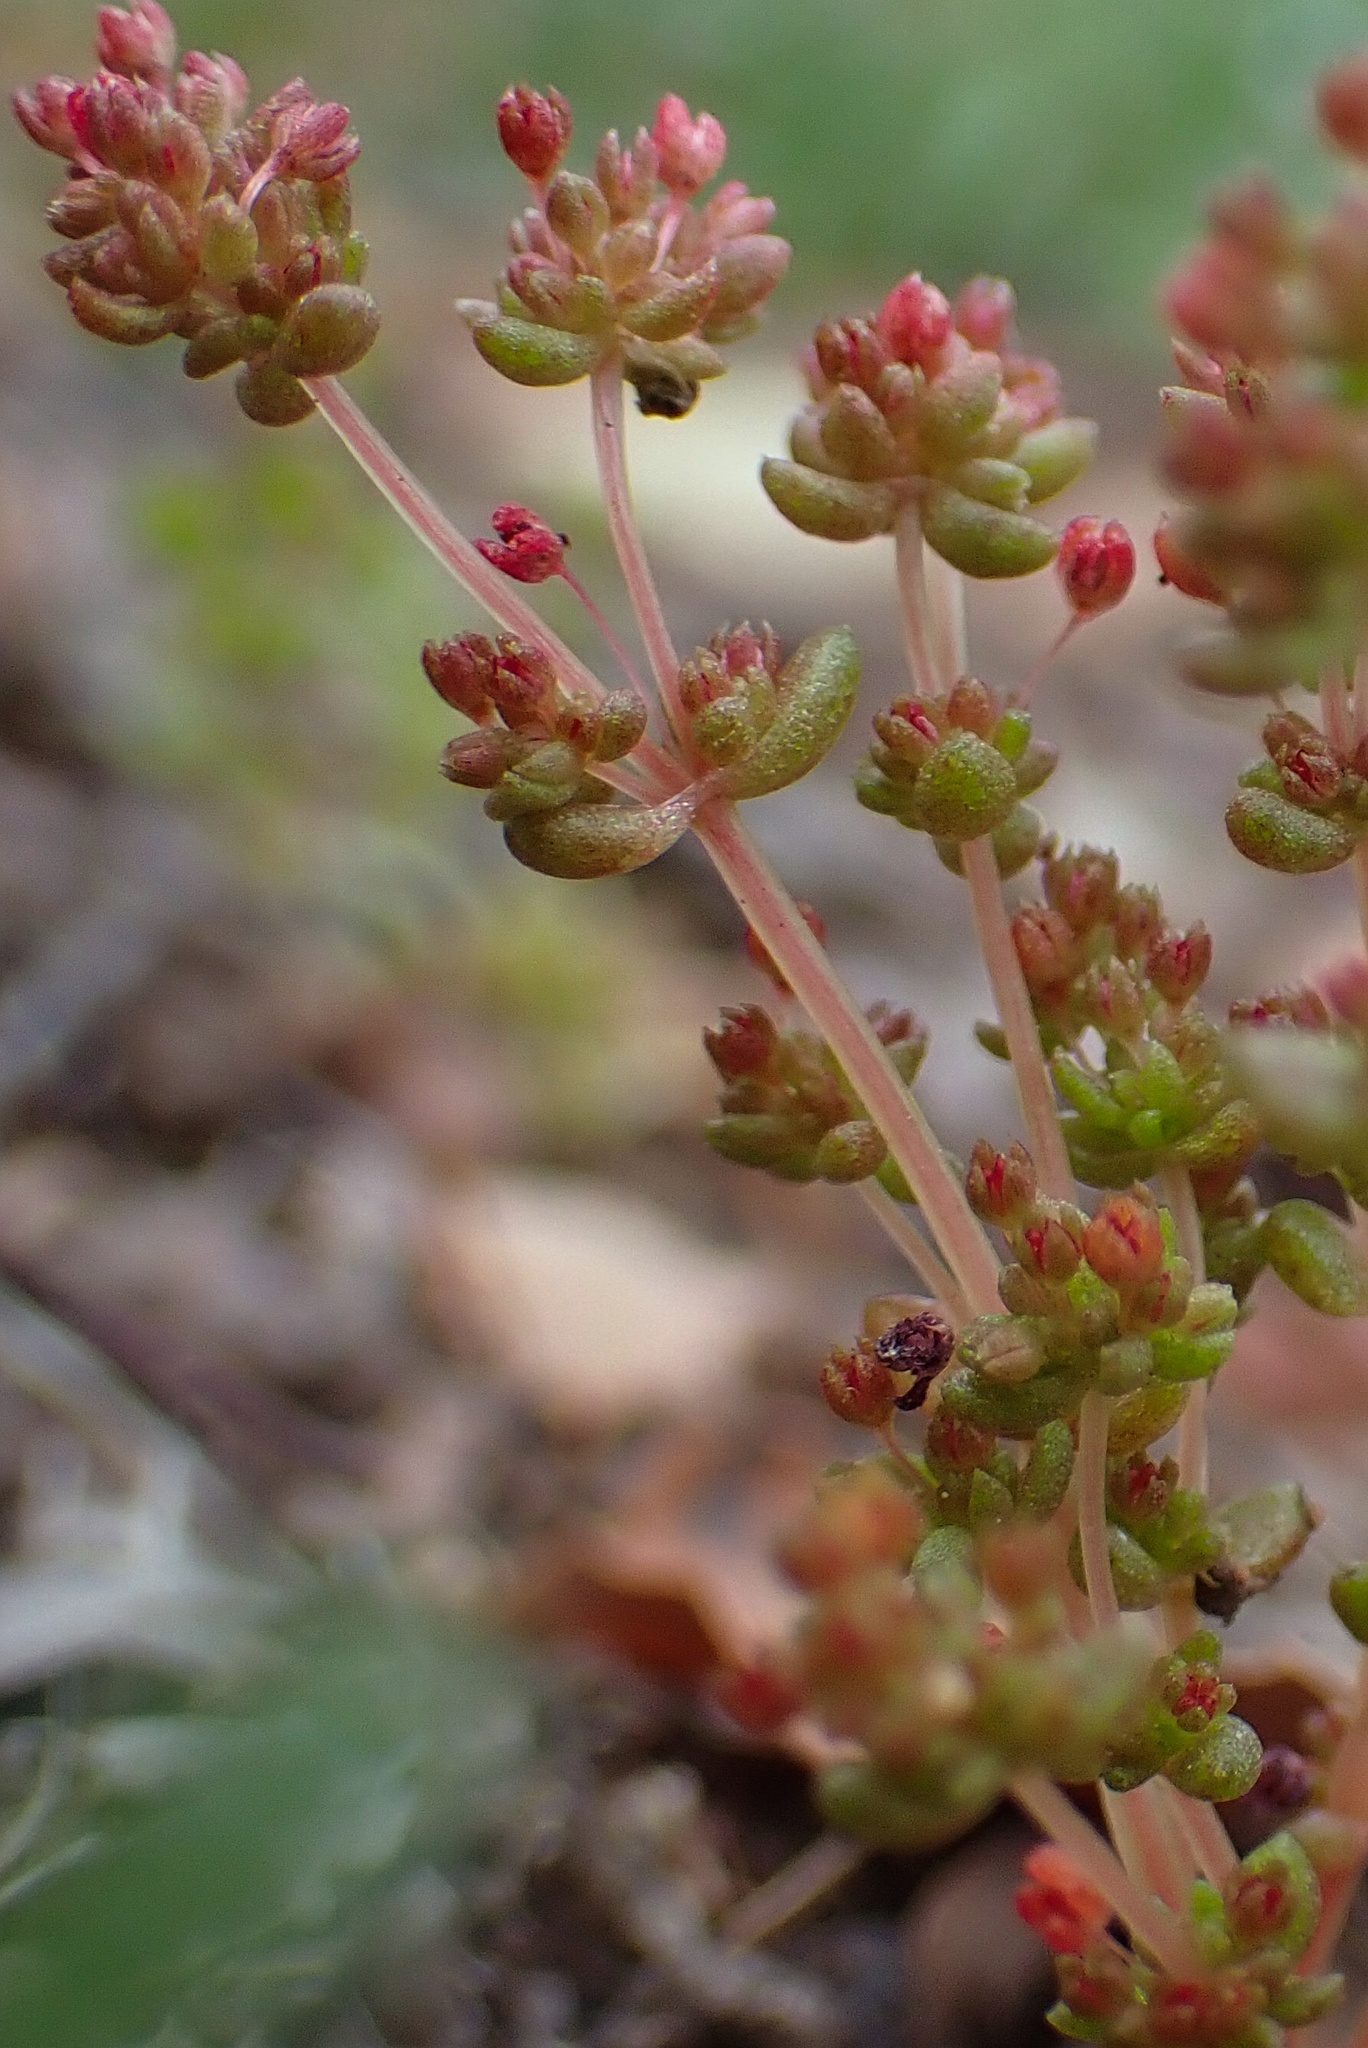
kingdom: Plantae
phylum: Tracheophyta
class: Magnoliopsida
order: Saxifragales
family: Crassulaceae
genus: Crassula
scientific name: Crassula connata
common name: Erect pygmyweed
